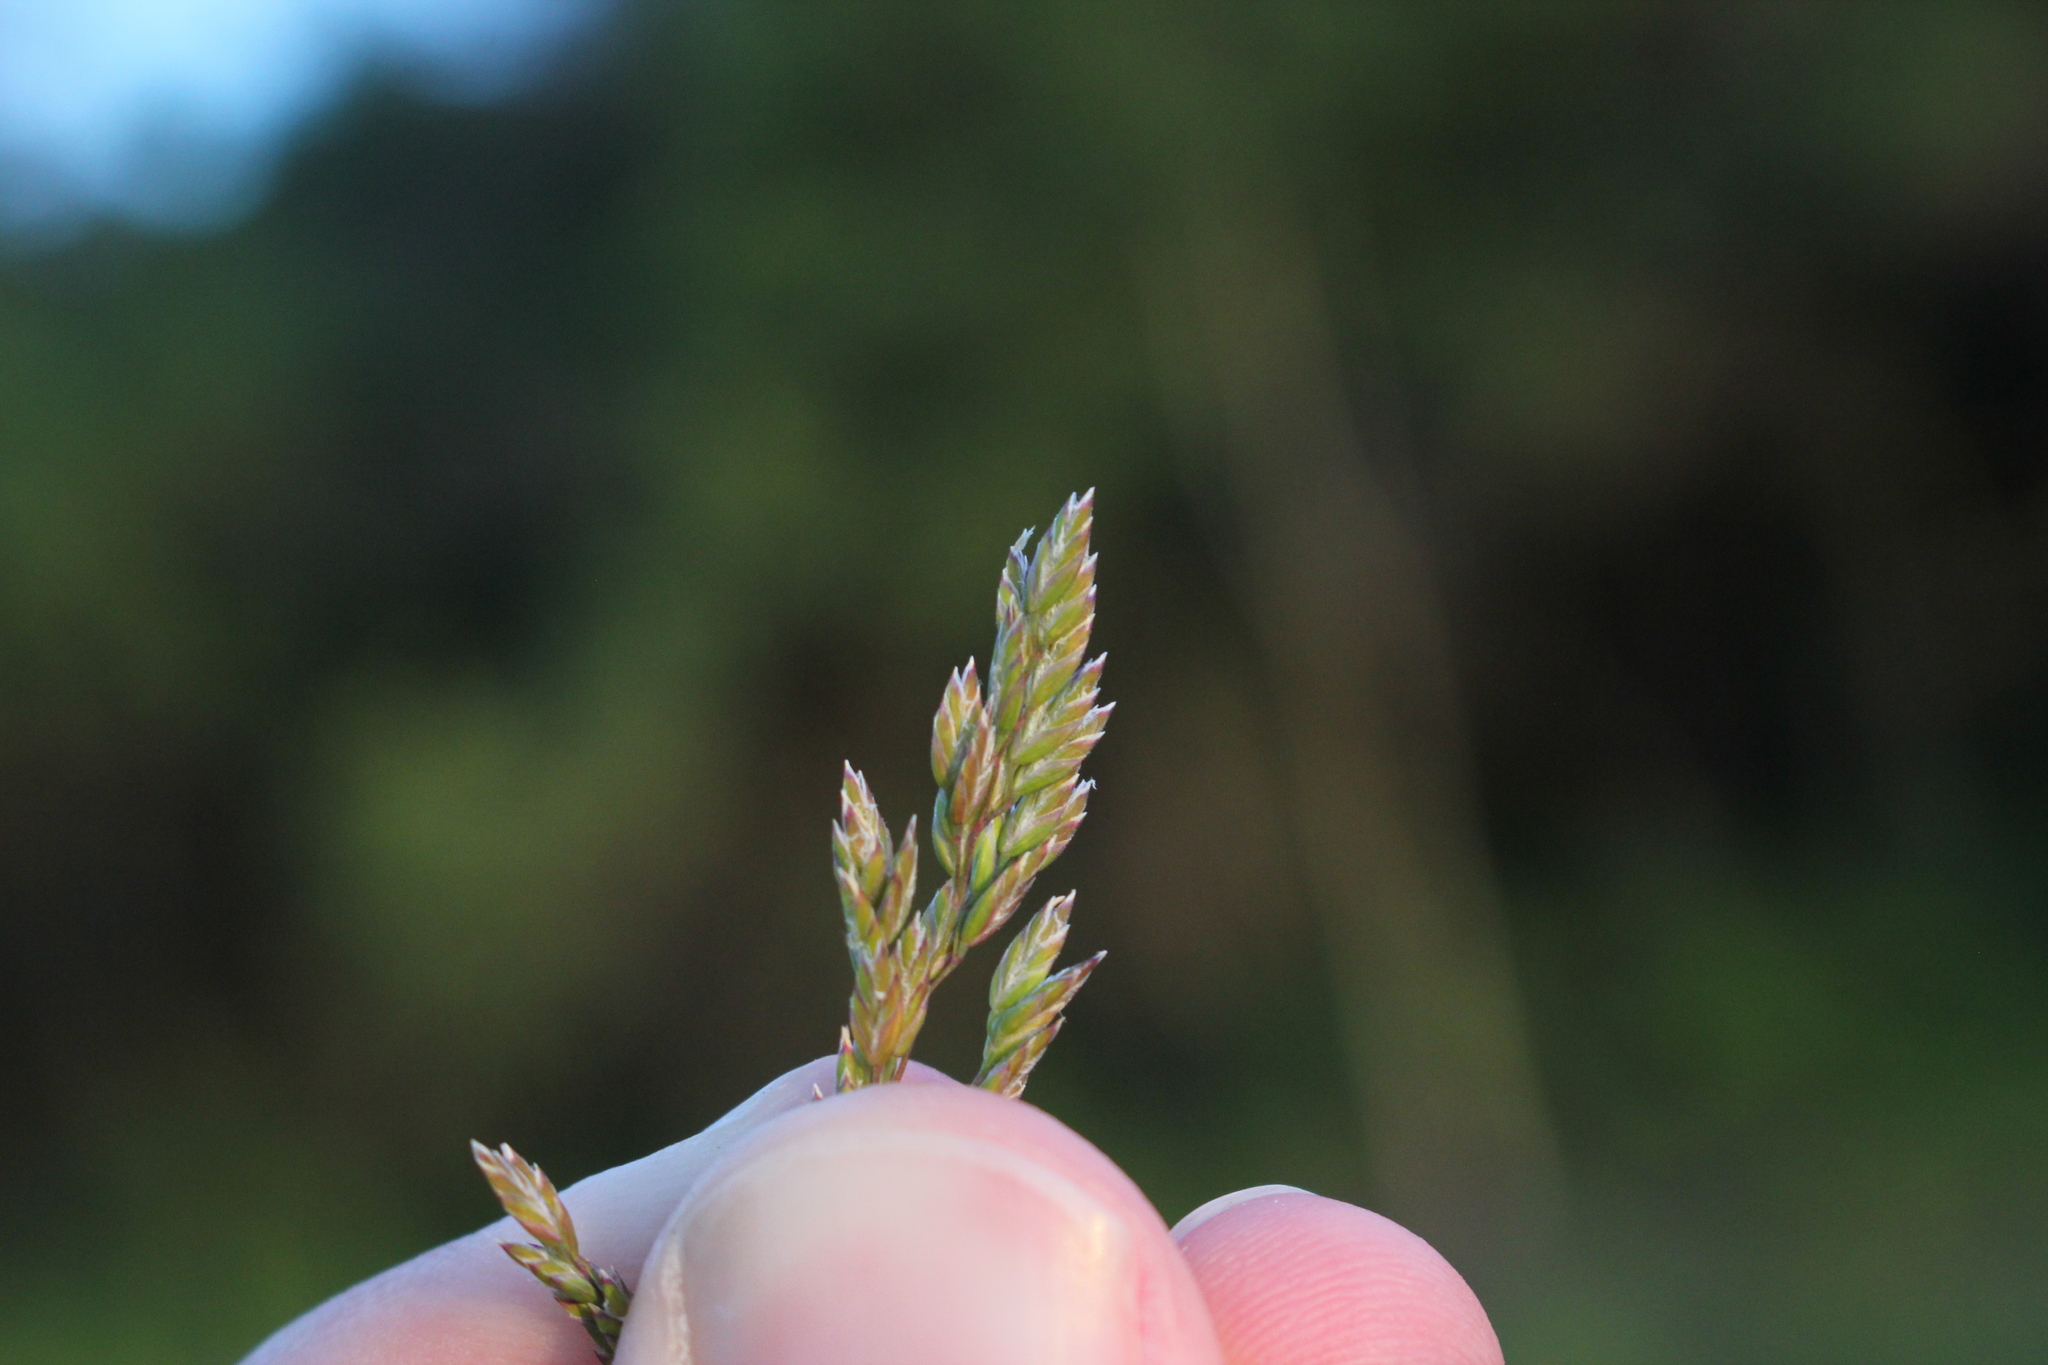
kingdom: Plantae
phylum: Tracheophyta
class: Liliopsida
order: Poales
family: Poaceae
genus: Poa
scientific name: Poa angustifolia
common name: Narrow-leaved meadow-grass
